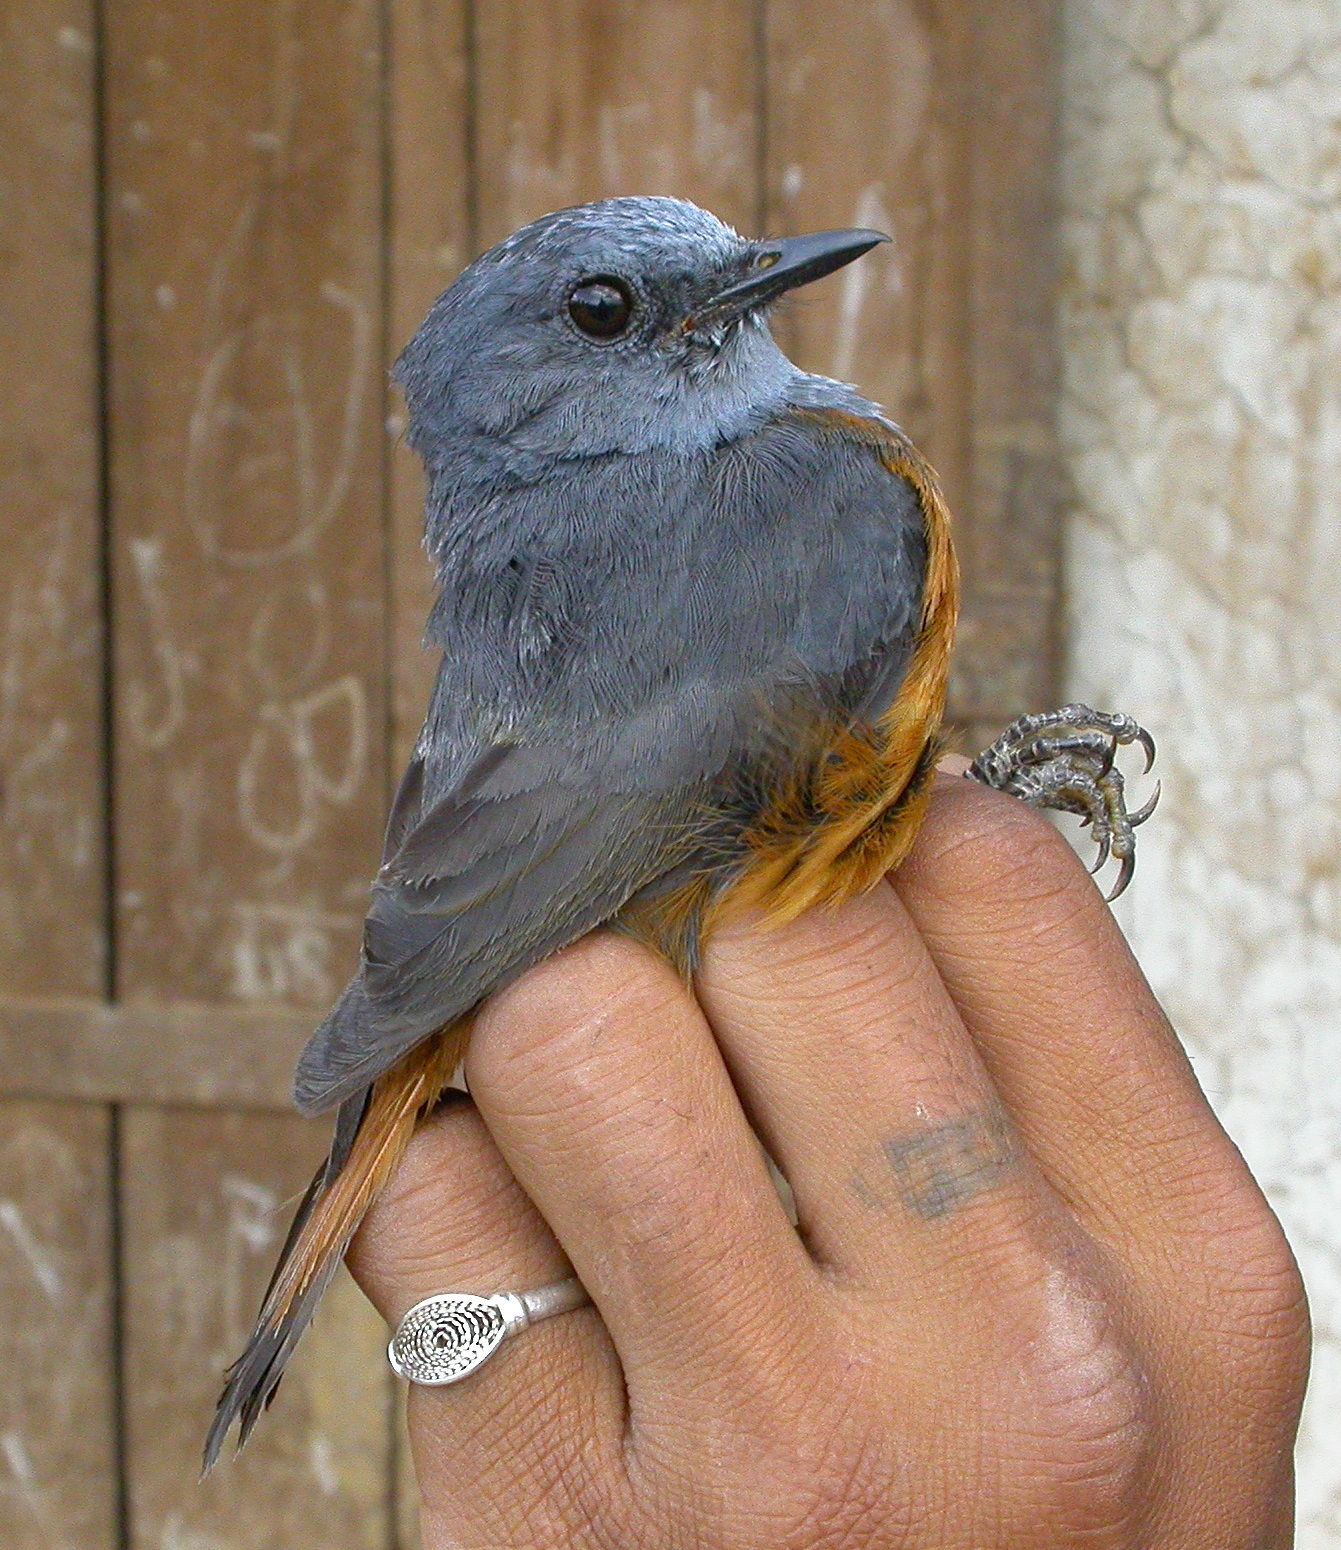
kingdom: Animalia
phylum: Chordata
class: Aves
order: Passeriformes
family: Muscicapidae
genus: Monticola
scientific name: Monticola sharpei
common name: Forest rock-thrush
